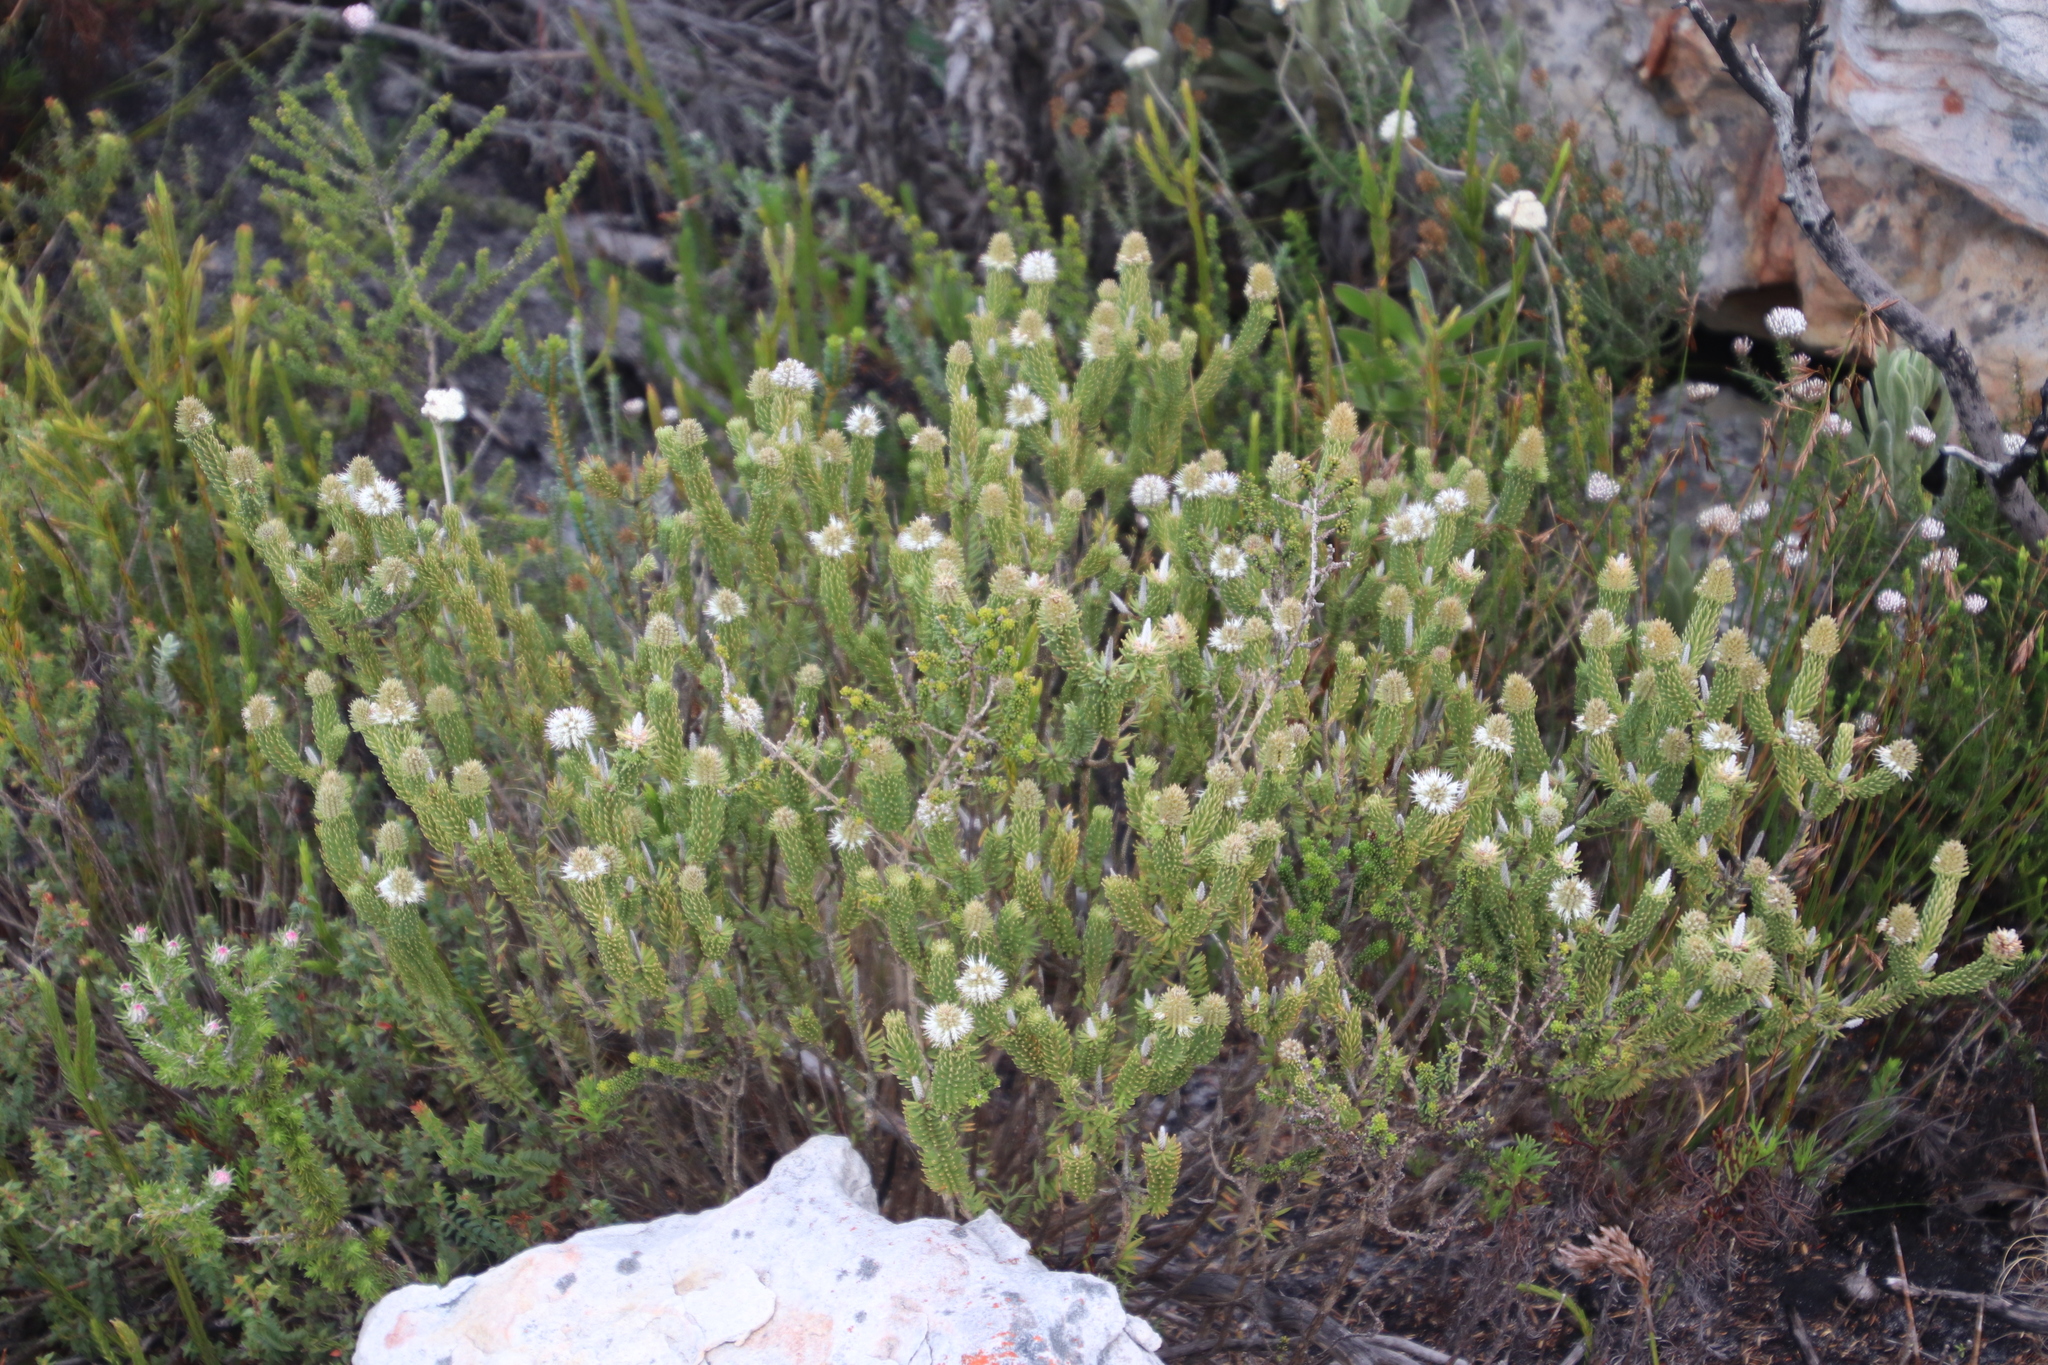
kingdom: Plantae
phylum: Tracheophyta
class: Magnoliopsida
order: Lamiales
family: Stilbaceae
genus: Stilbe
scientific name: Stilbe vestita
